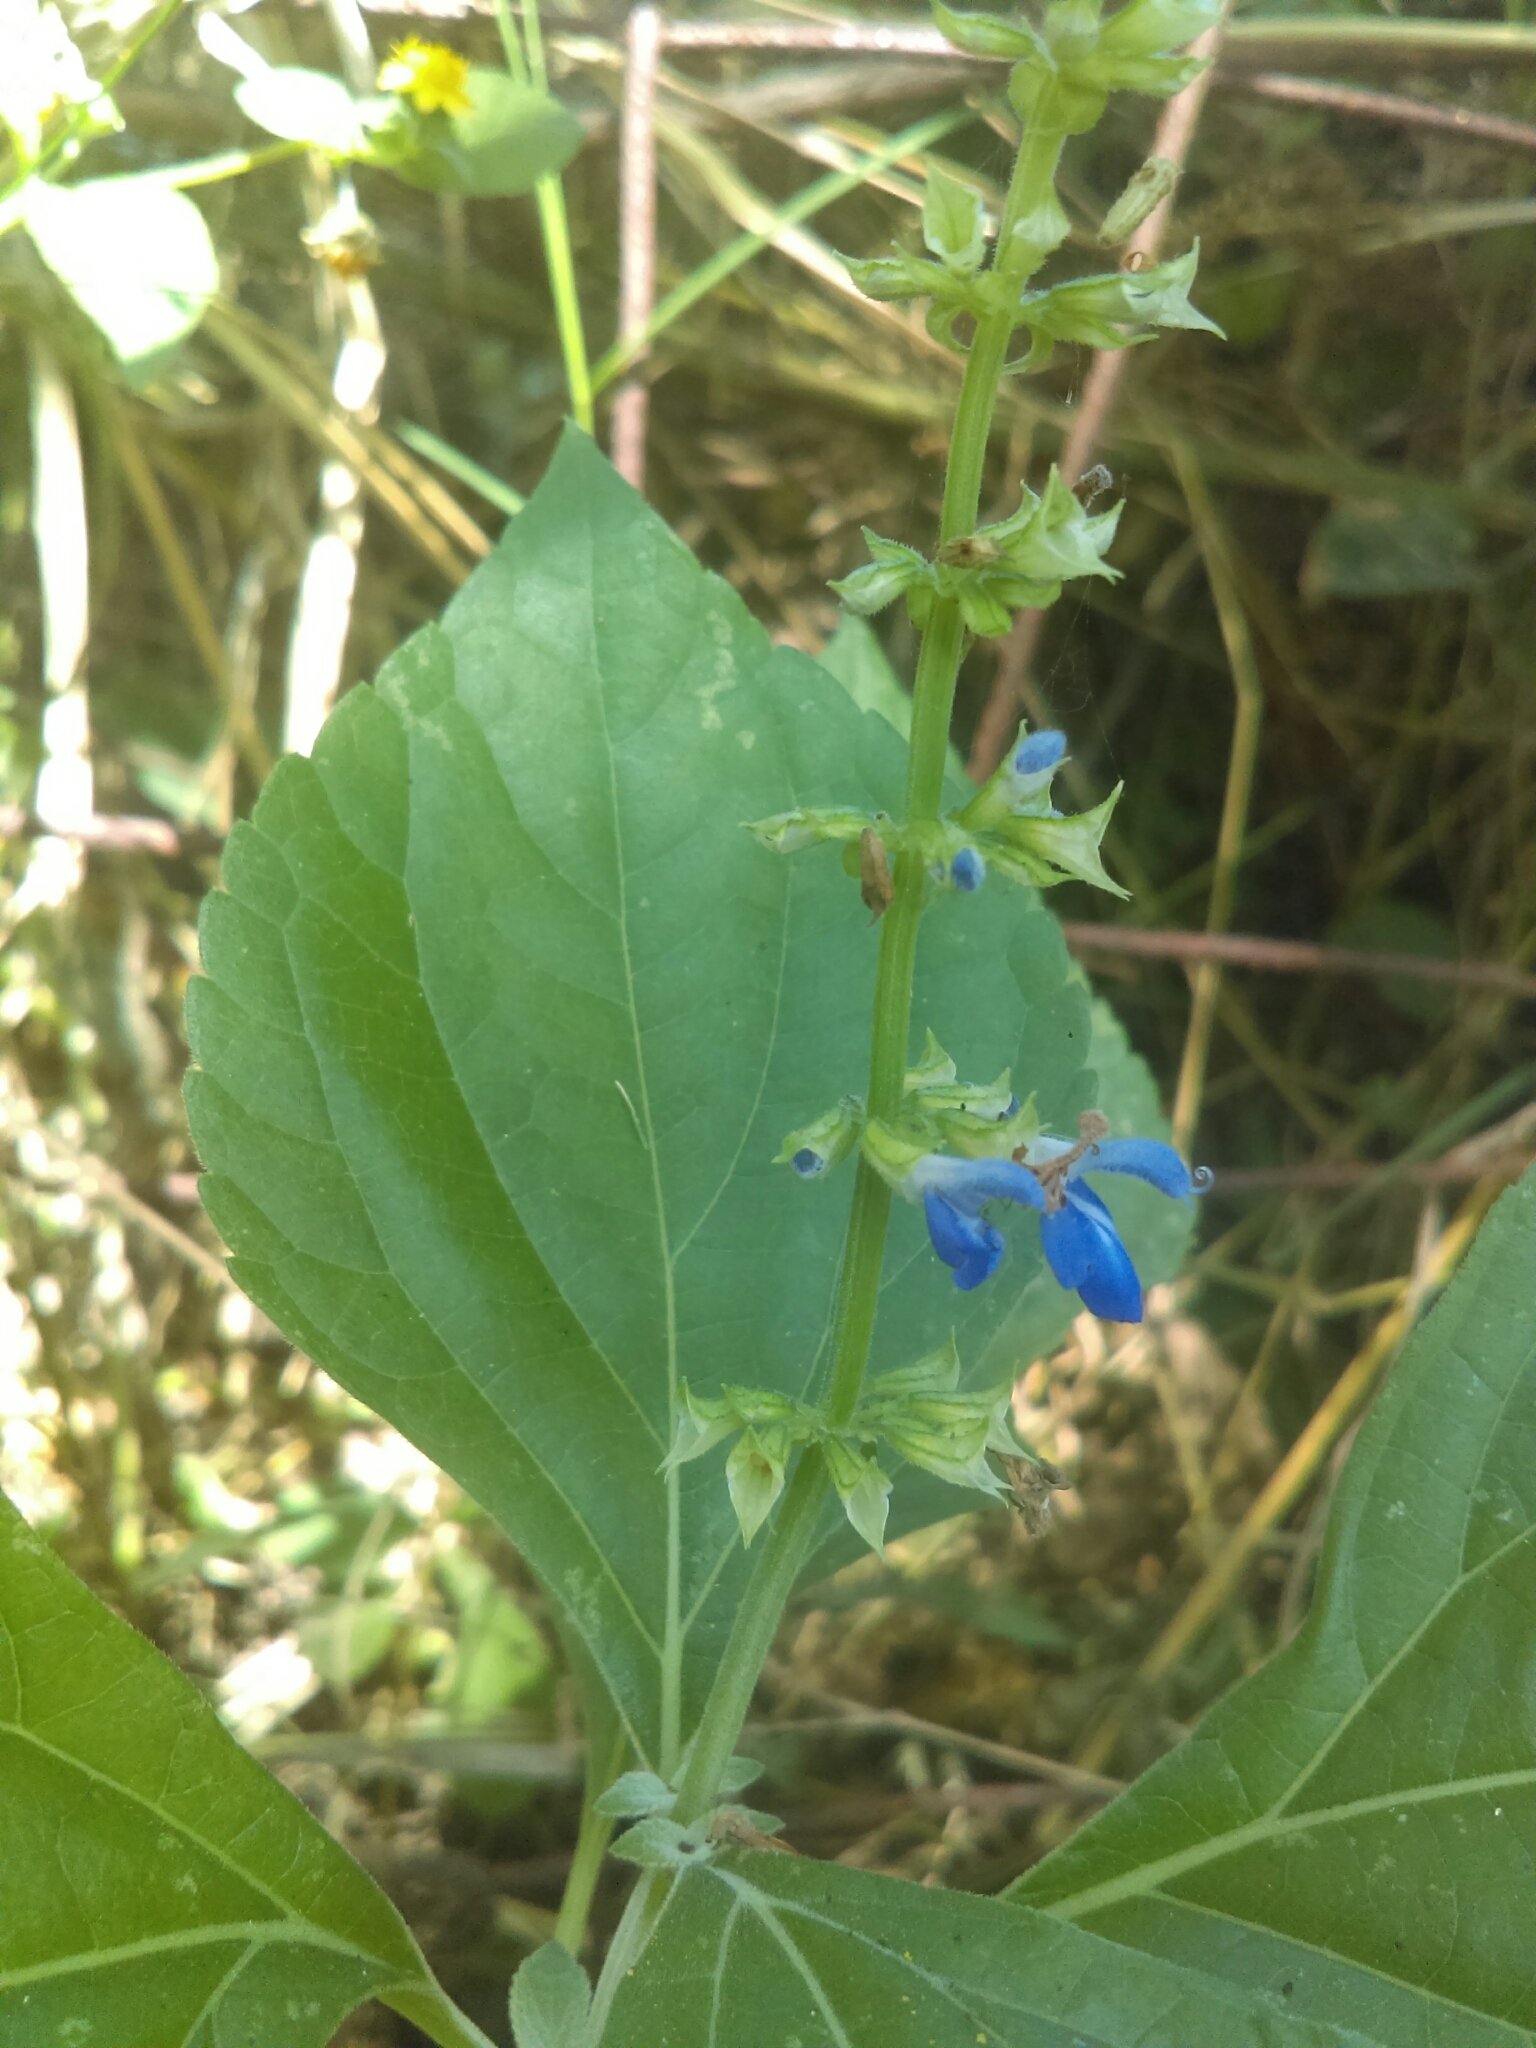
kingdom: Plantae
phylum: Tracheophyta
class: Magnoliopsida
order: Lamiales
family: Lamiaceae
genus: Salvia
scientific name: Salvia roscida
